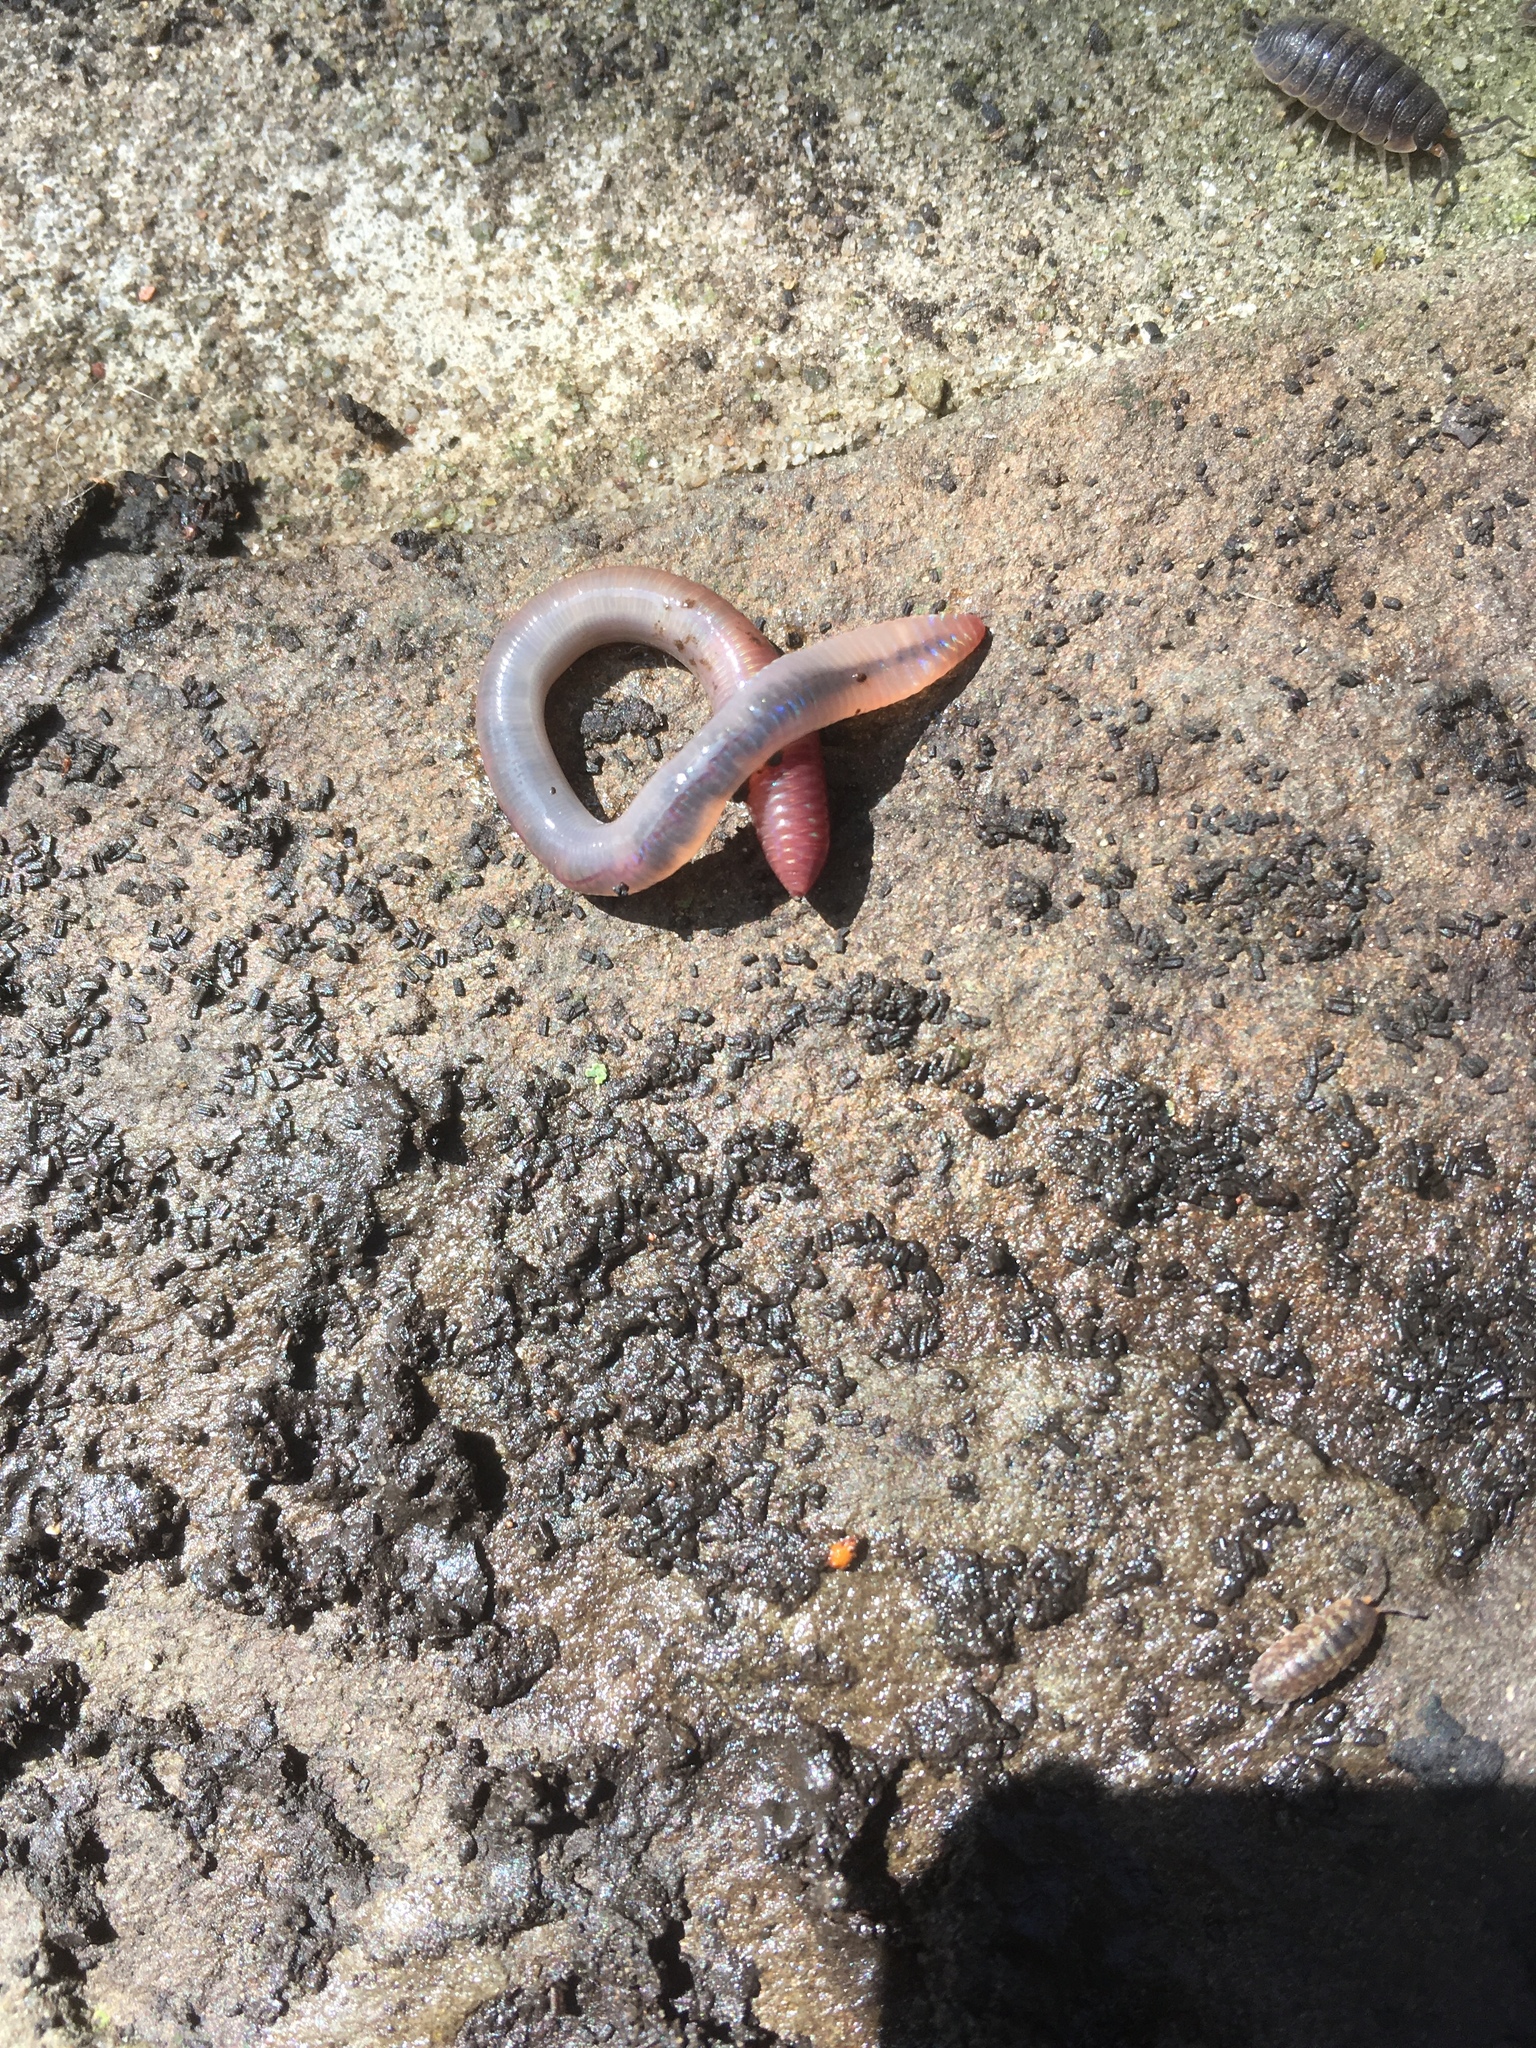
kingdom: Animalia
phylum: Annelida
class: Clitellata
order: Crassiclitellata
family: Lumbricidae
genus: Lumbricus
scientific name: Lumbricus terrestris
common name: Common earthworm
